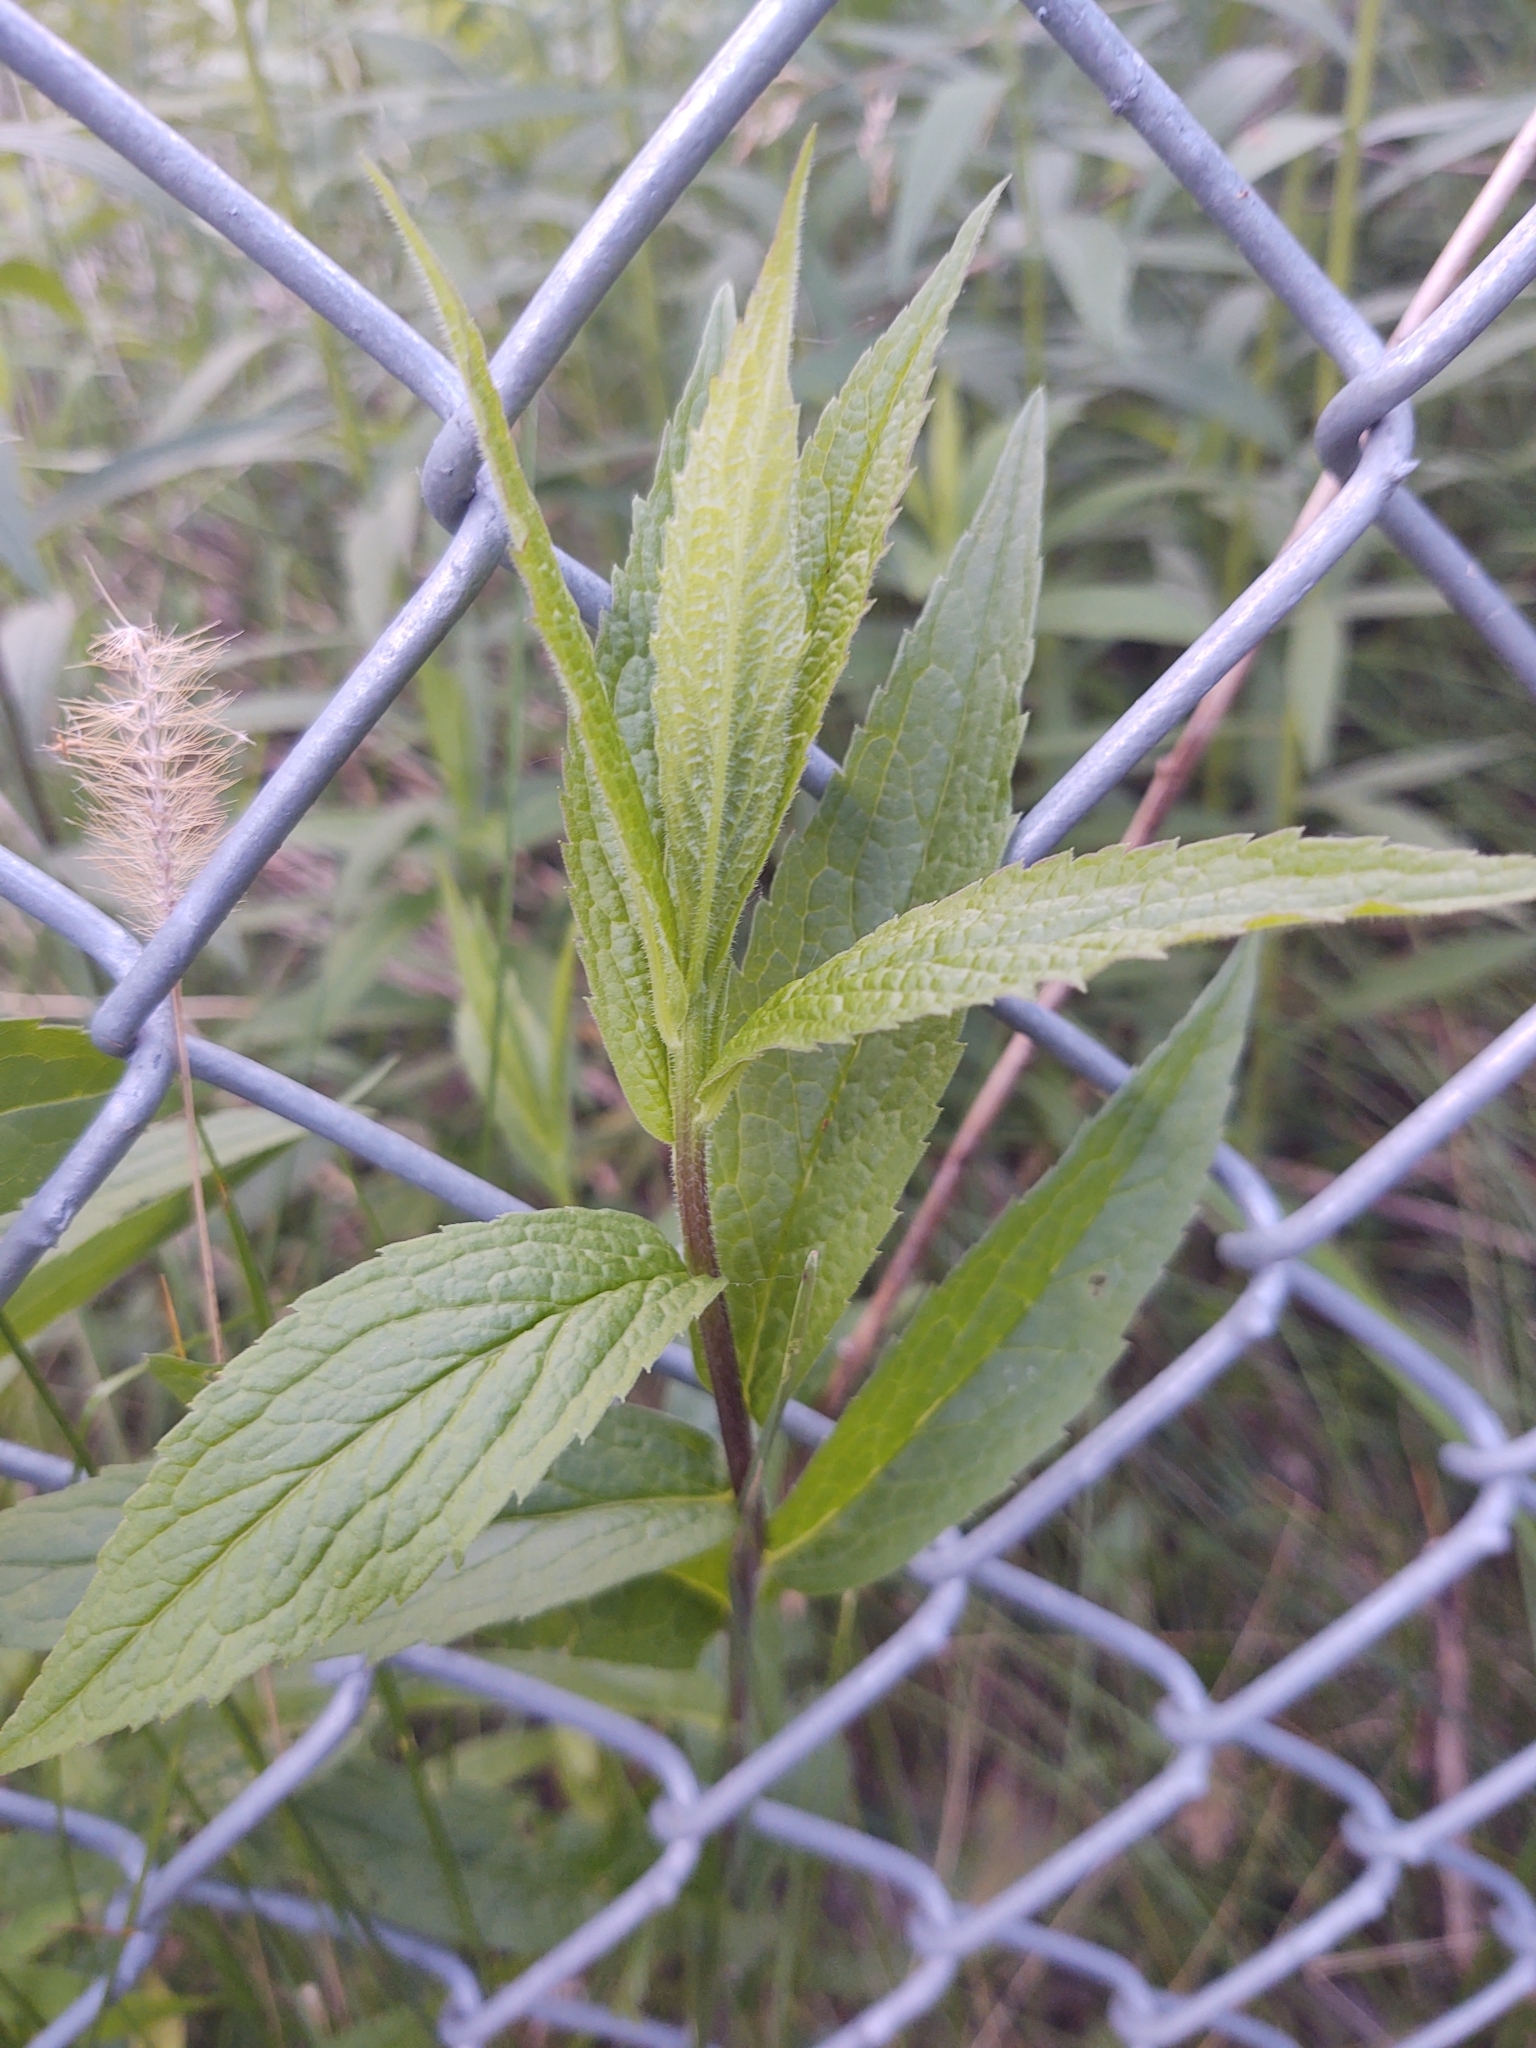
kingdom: Plantae
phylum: Tracheophyta
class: Magnoliopsida
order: Asterales
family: Asteraceae
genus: Solidago
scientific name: Solidago rugosa
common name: Rough-stemmed goldenrod
